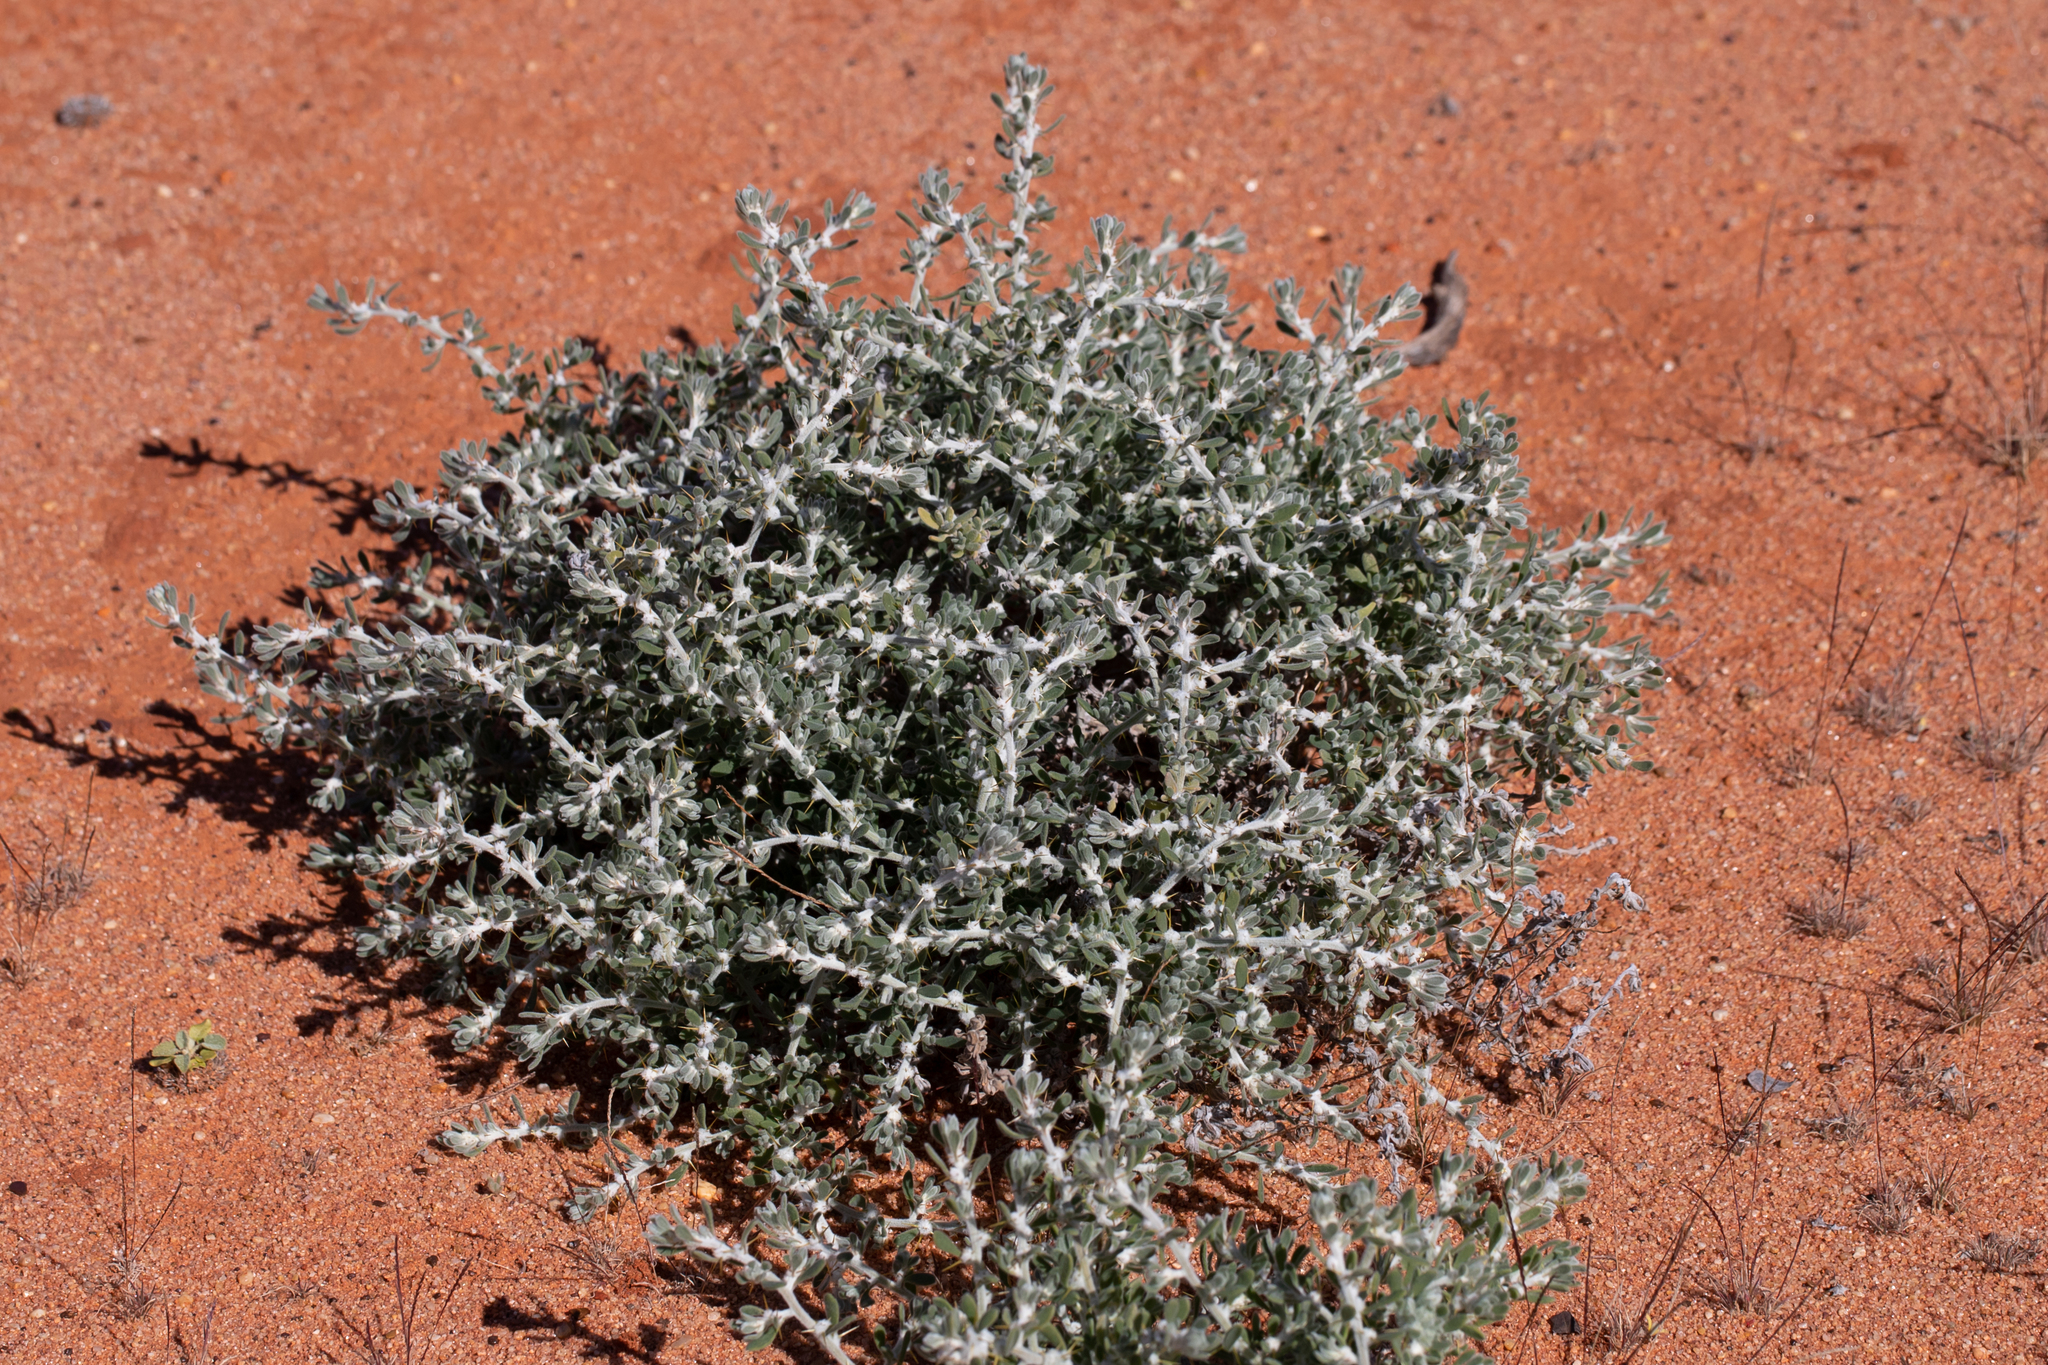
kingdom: Plantae
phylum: Tracheophyta
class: Magnoliopsida
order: Caryophyllales
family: Amaranthaceae
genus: Sclerolaena
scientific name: Sclerolaena birchii
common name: Galvanized bur
